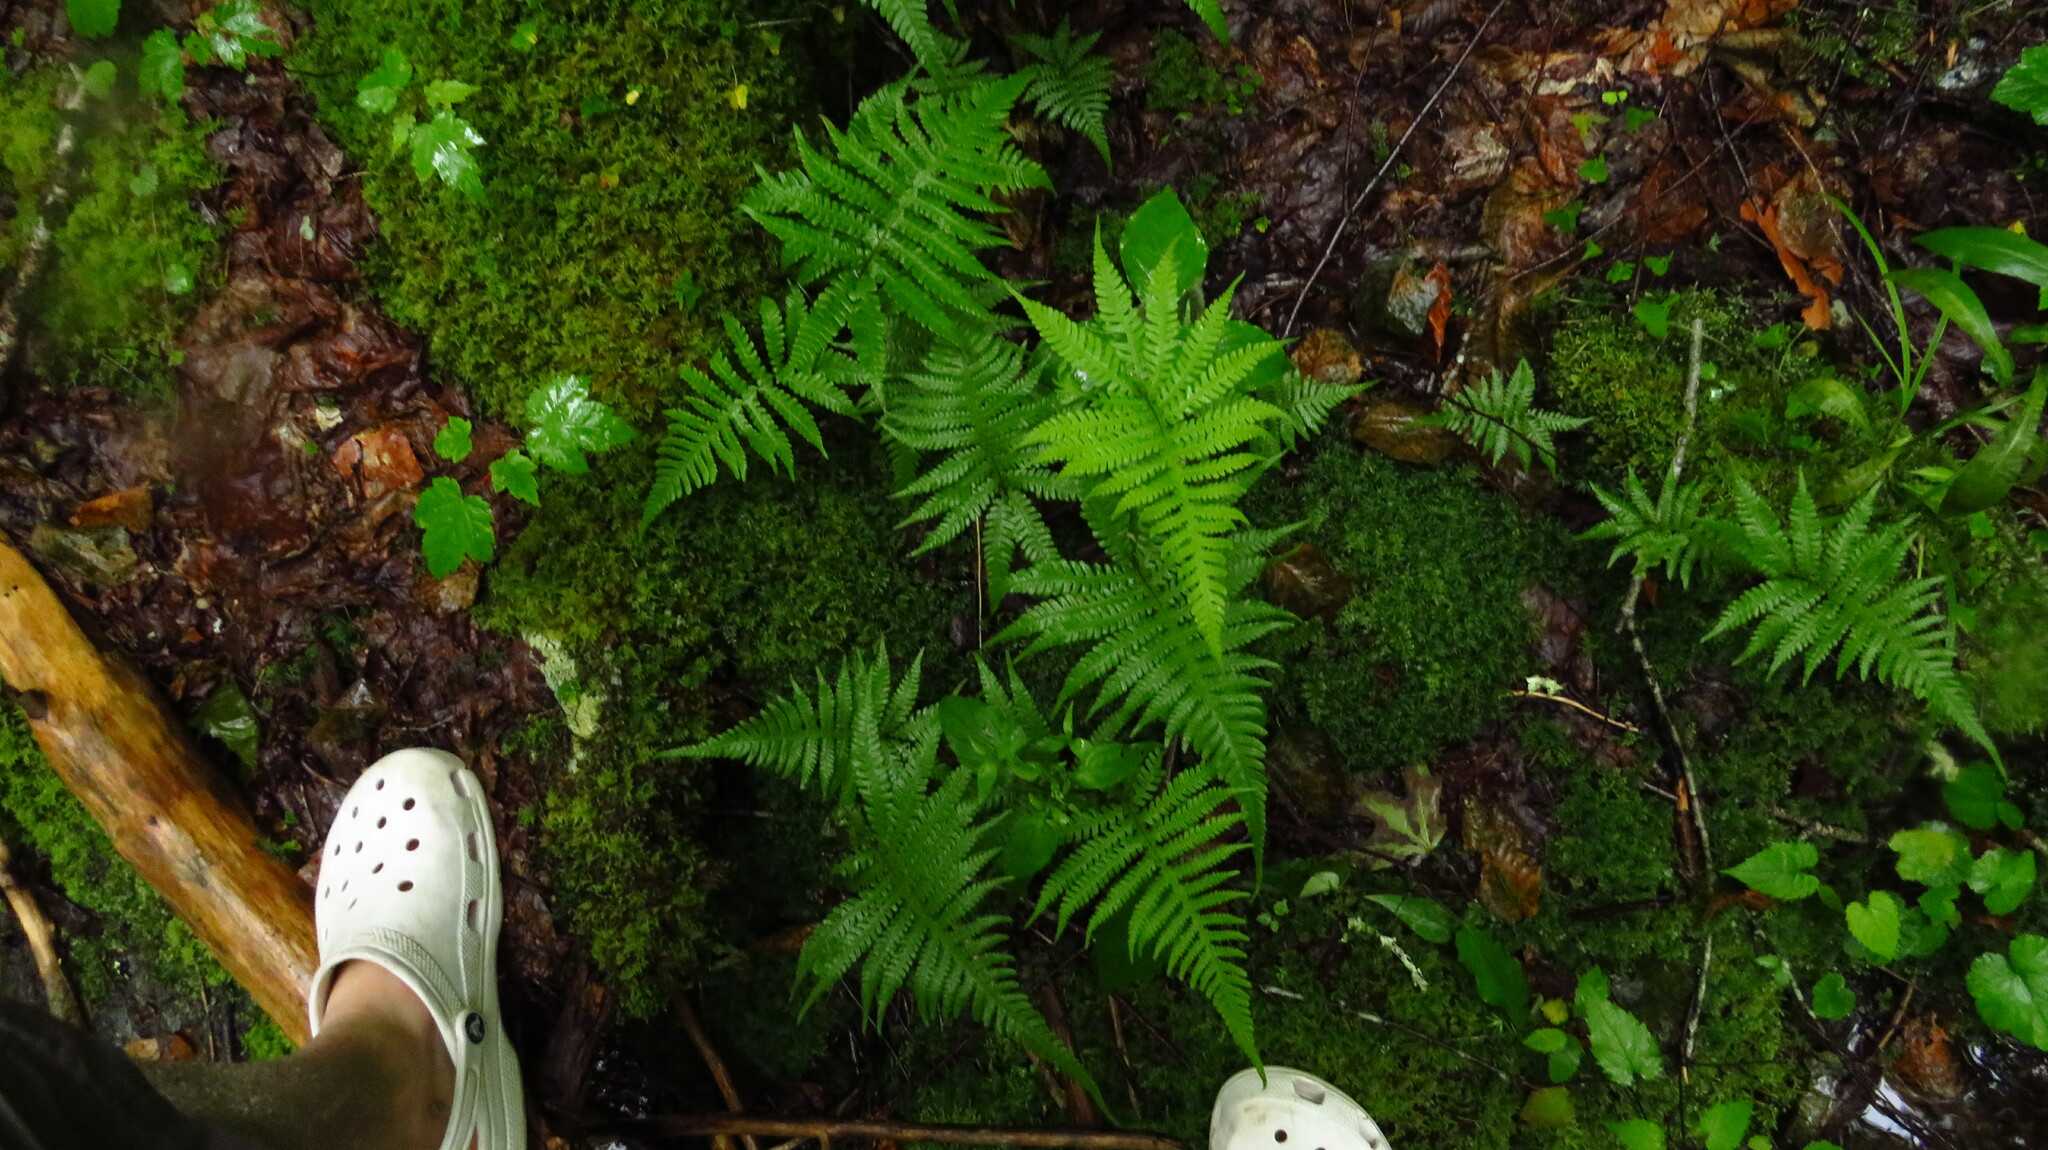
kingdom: Plantae
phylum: Tracheophyta
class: Polypodiopsida
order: Polypodiales
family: Thelypteridaceae
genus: Phegopteris
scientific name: Phegopteris connectilis
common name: Beech fern
